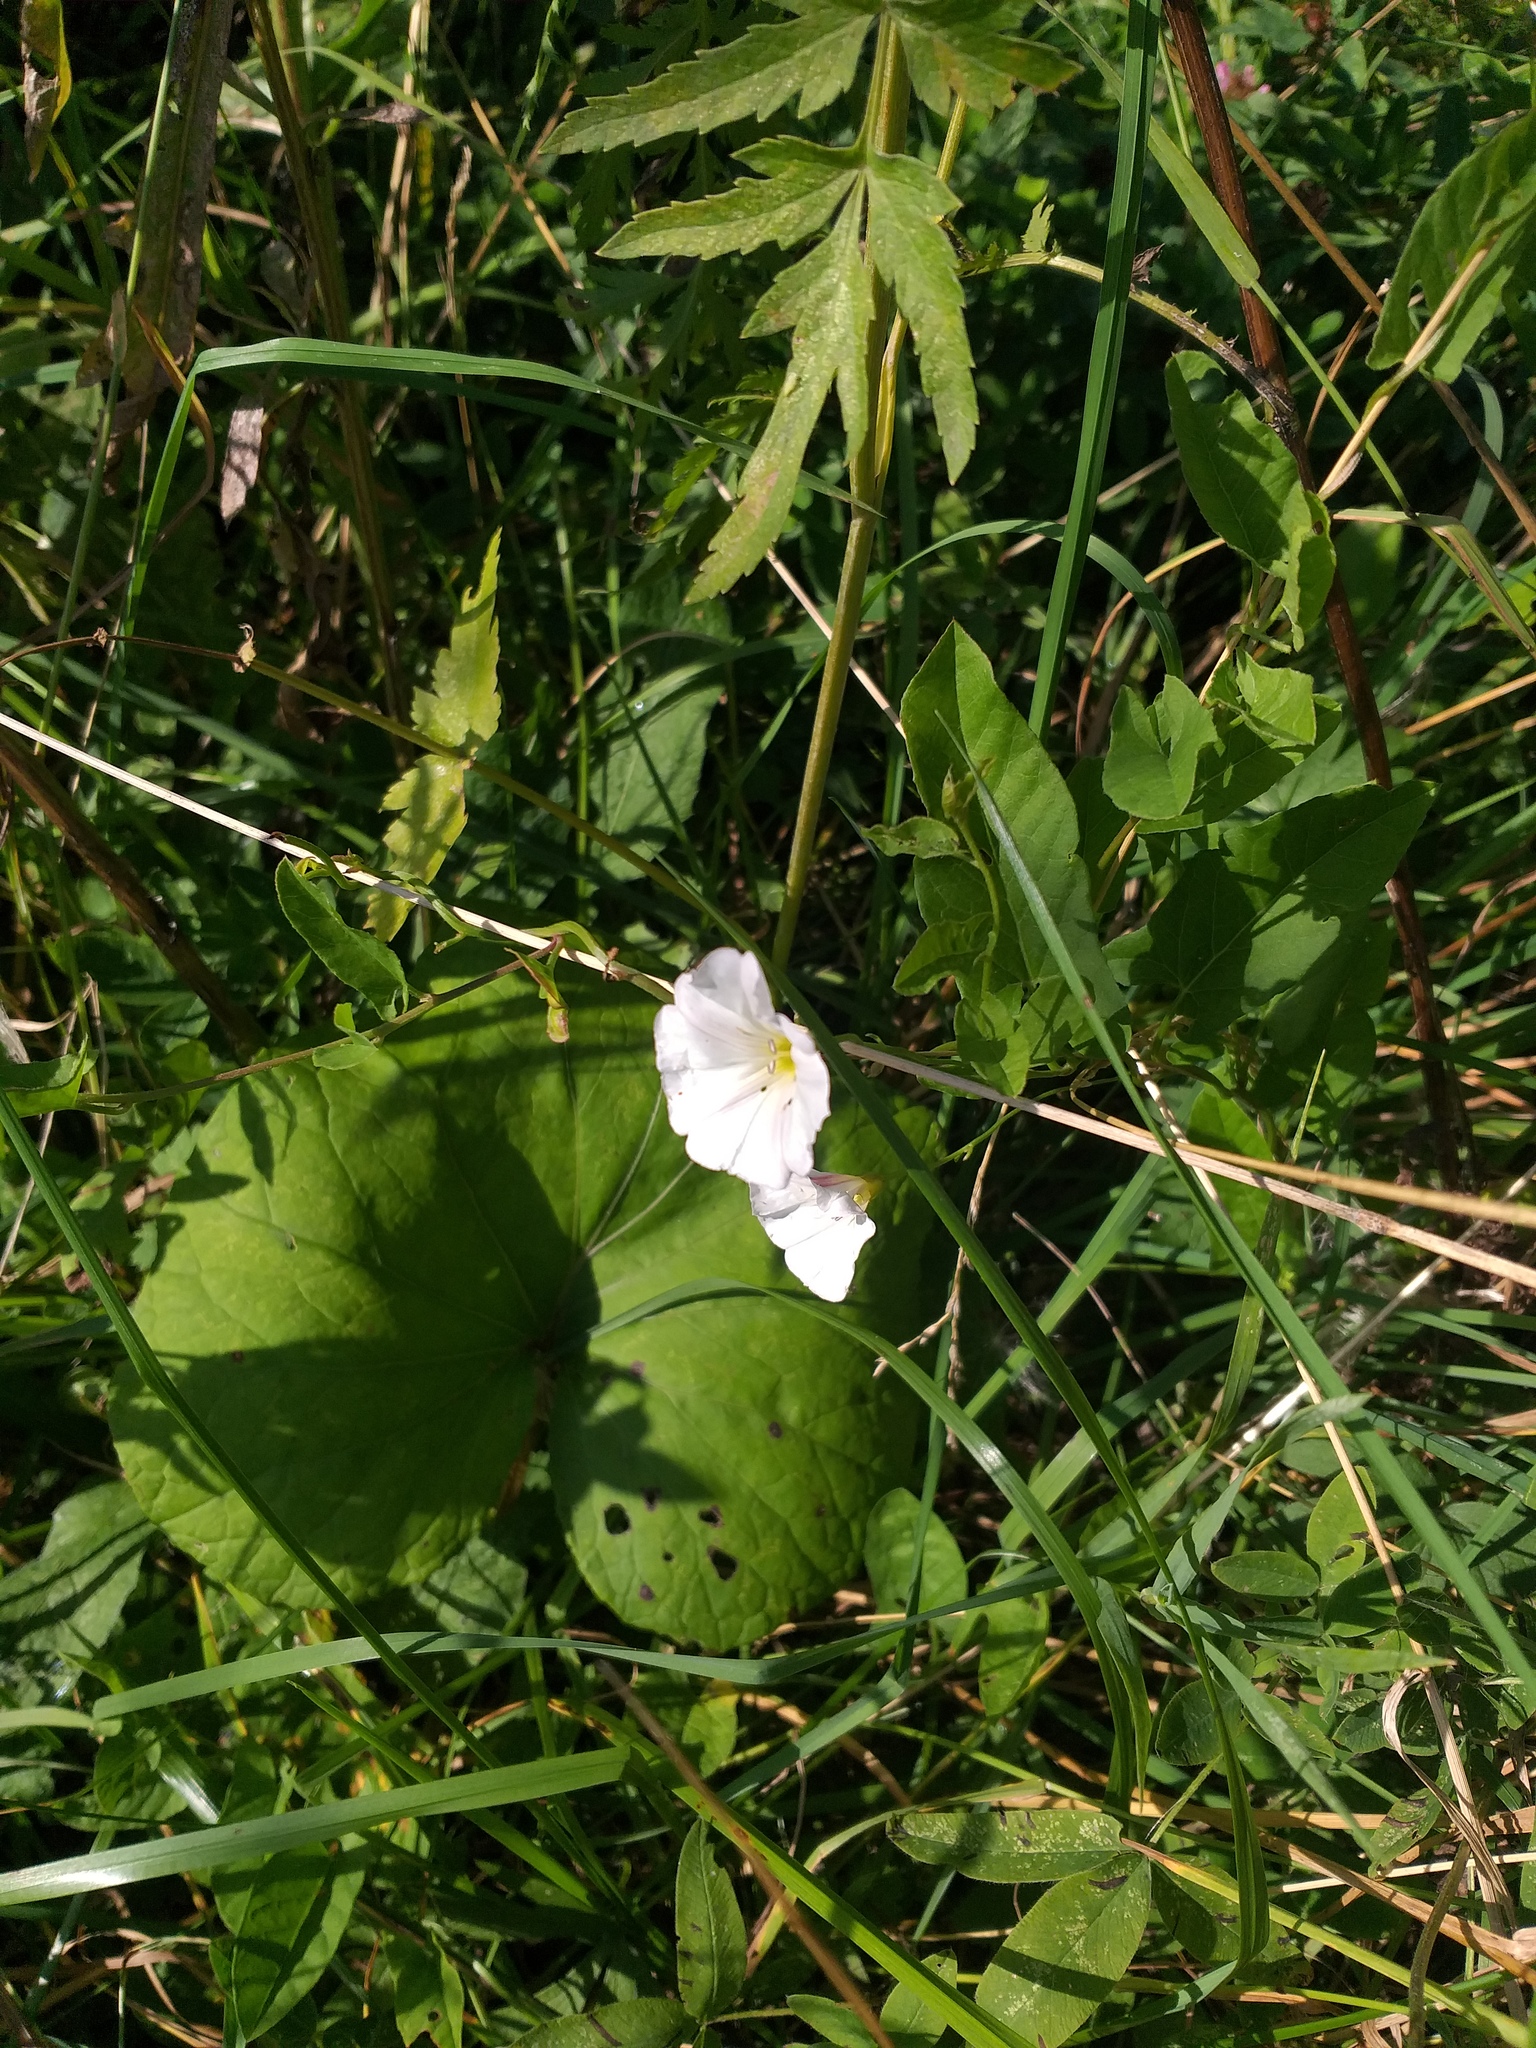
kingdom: Plantae
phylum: Tracheophyta
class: Magnoliopsida
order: Solanales
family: Convolvulaceae
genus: Convolvulus
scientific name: Convolvulus arvensis
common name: Field bindweed
